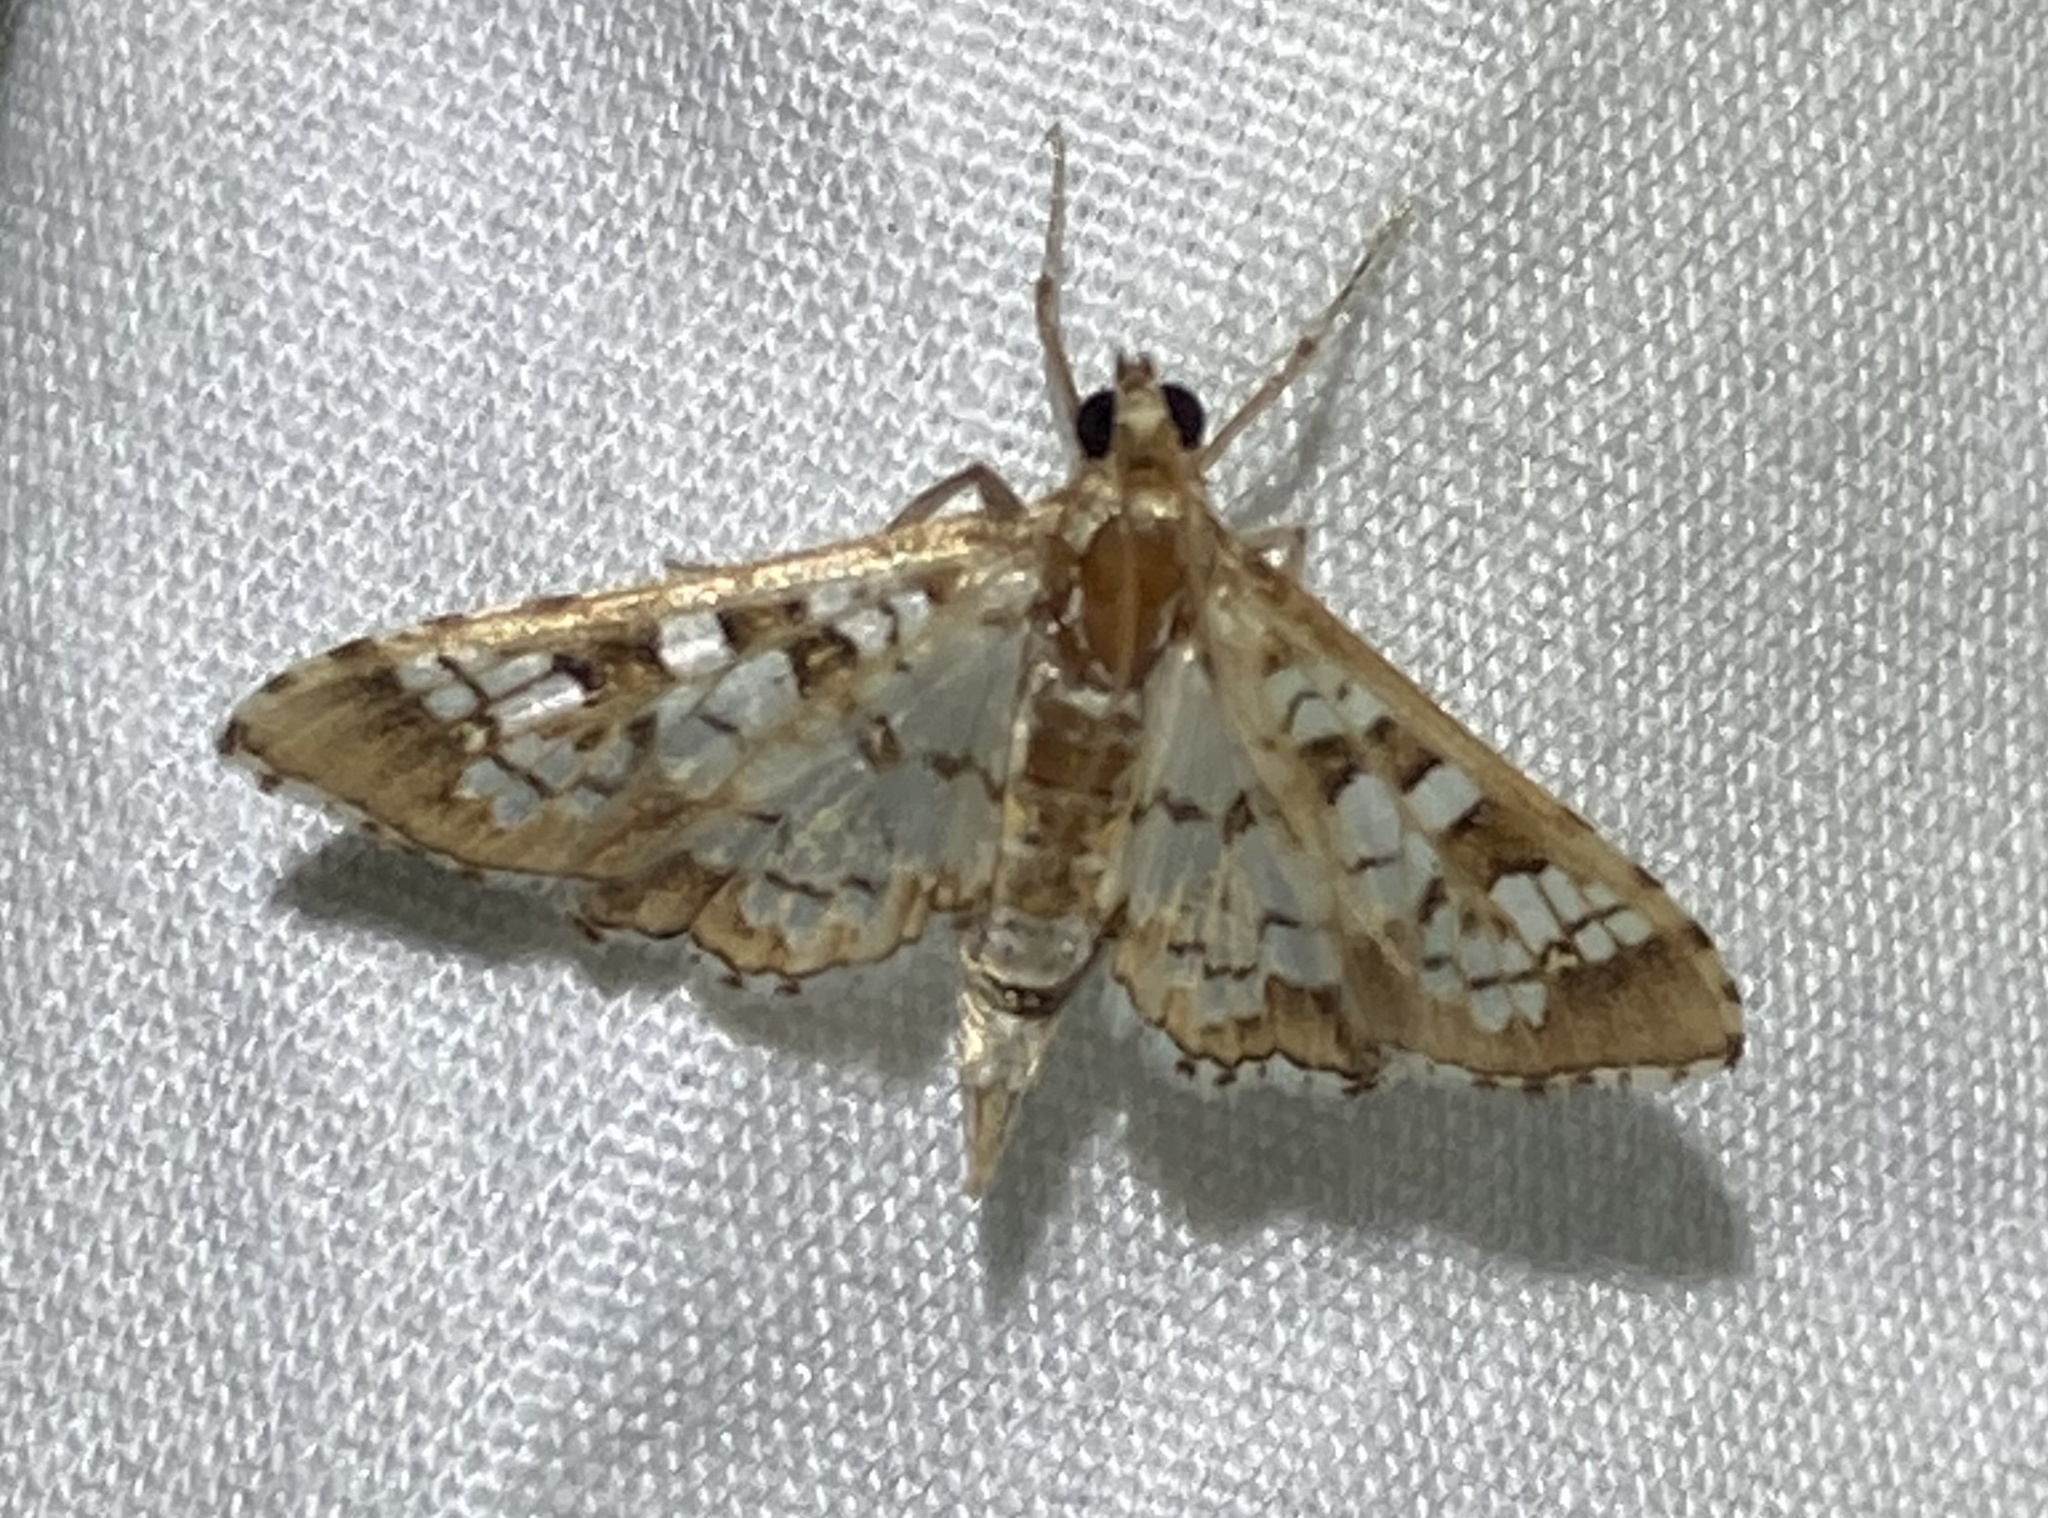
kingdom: Animalia
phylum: Arthropoda
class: Insecta
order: Lepidoptera
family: Crambidae
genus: Samea
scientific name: Samea ecclesialis
